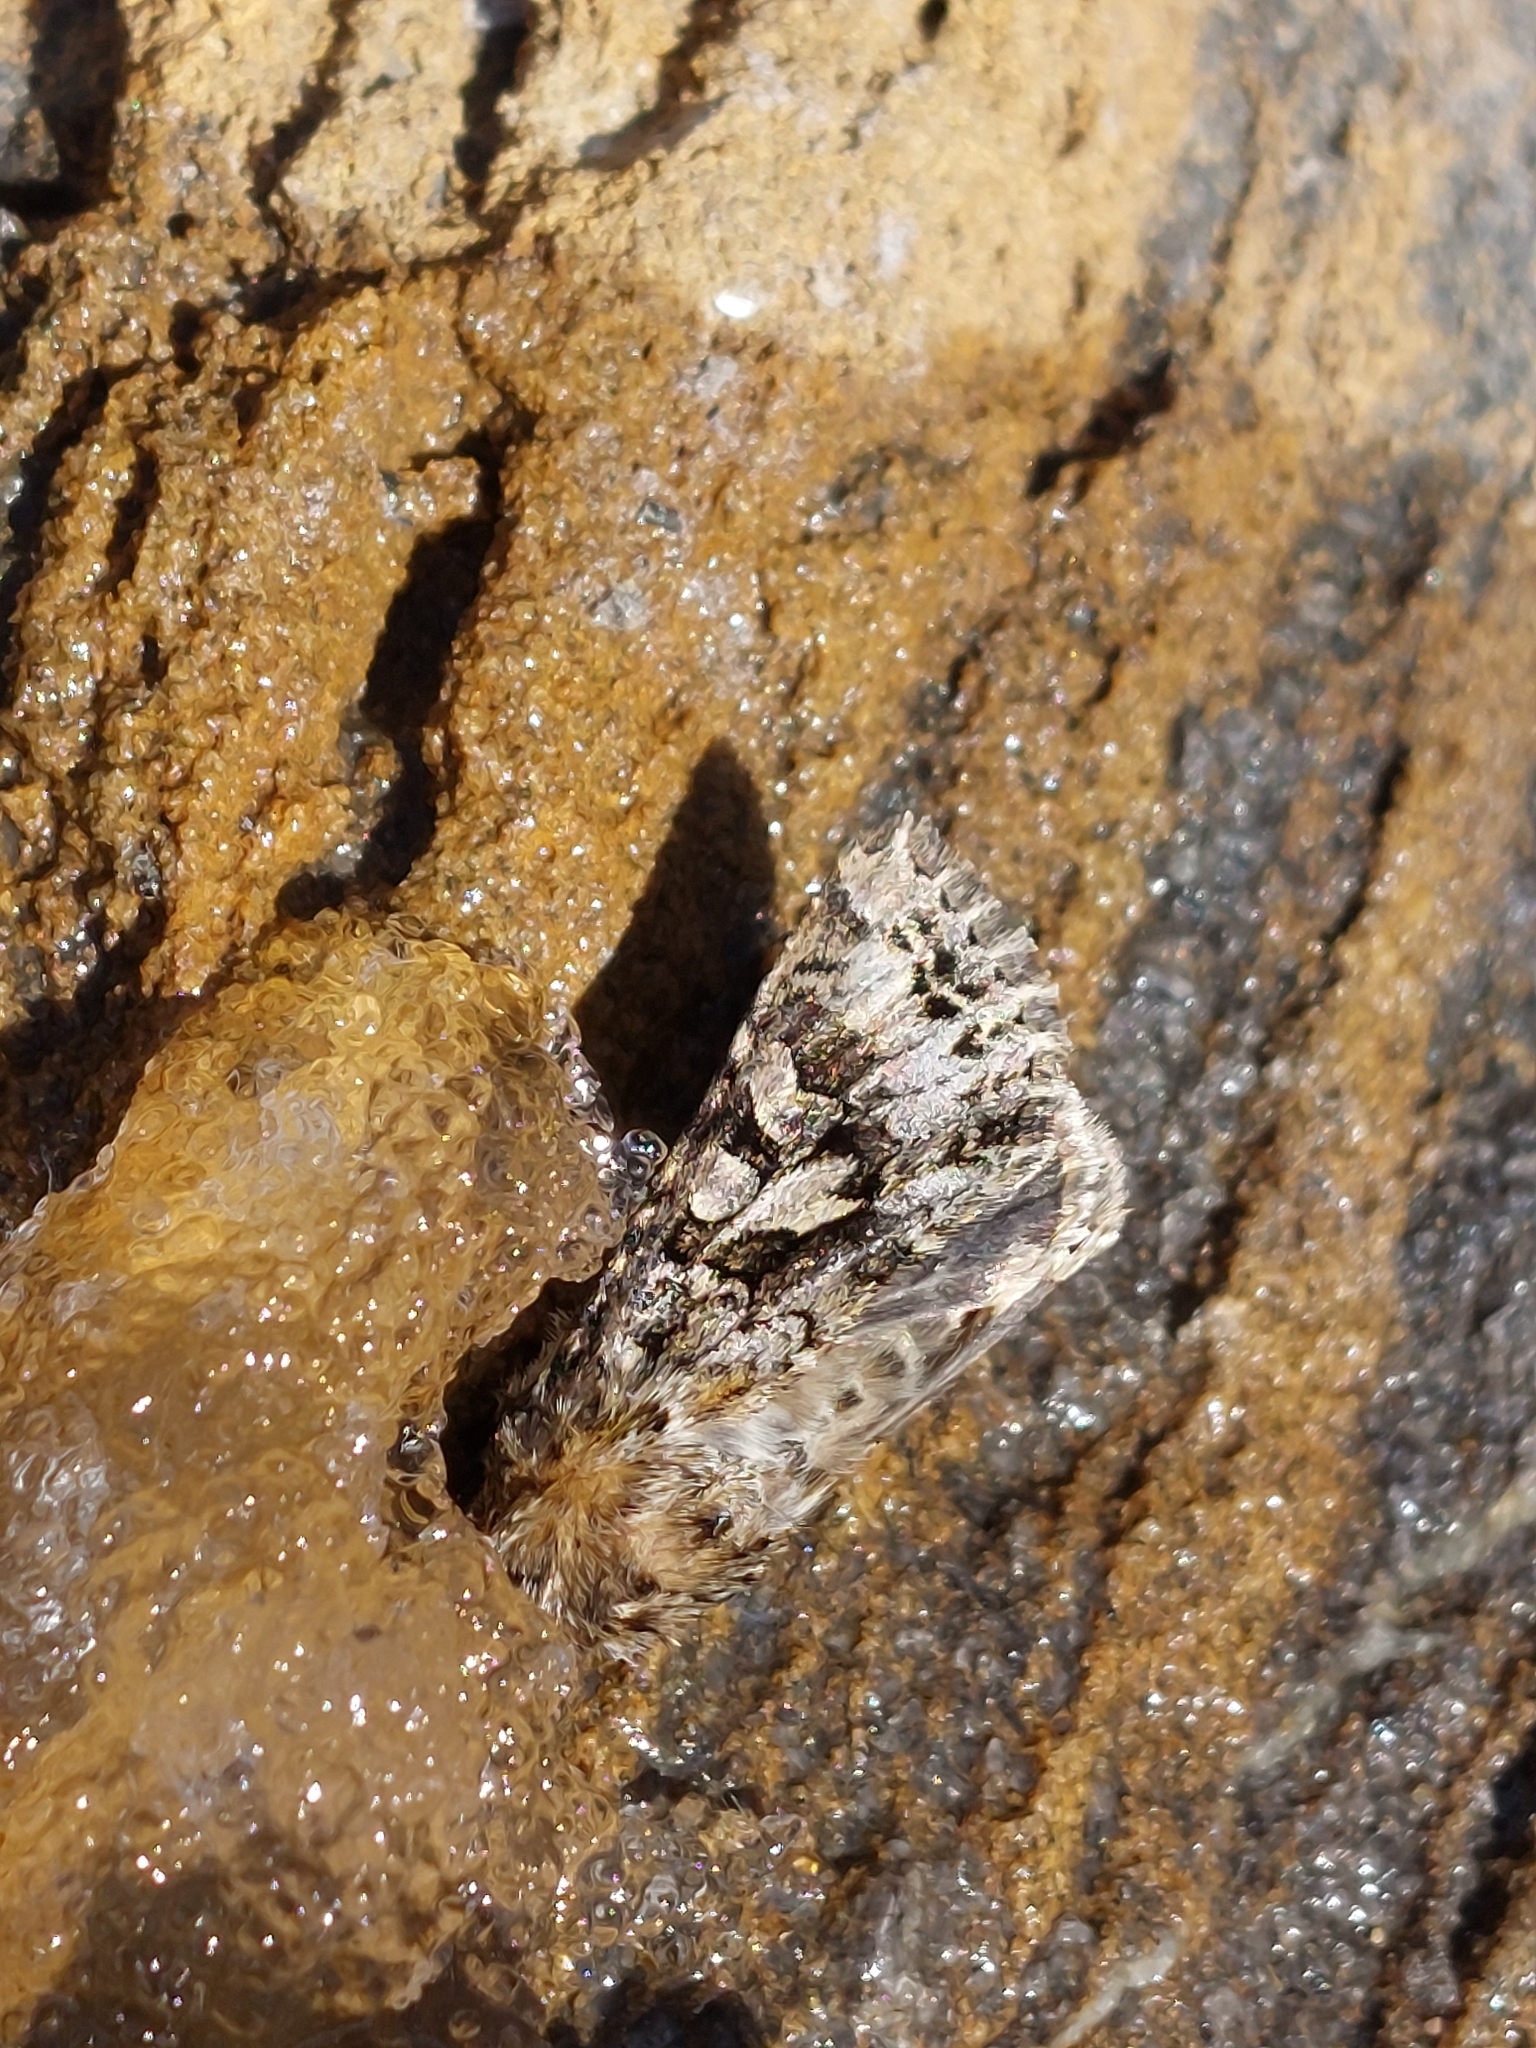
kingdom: Animalia
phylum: Arthropoda
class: Insecta
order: Lepidoptera
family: Noctuidae
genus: Hada
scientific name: Hada plebeja
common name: Shears
